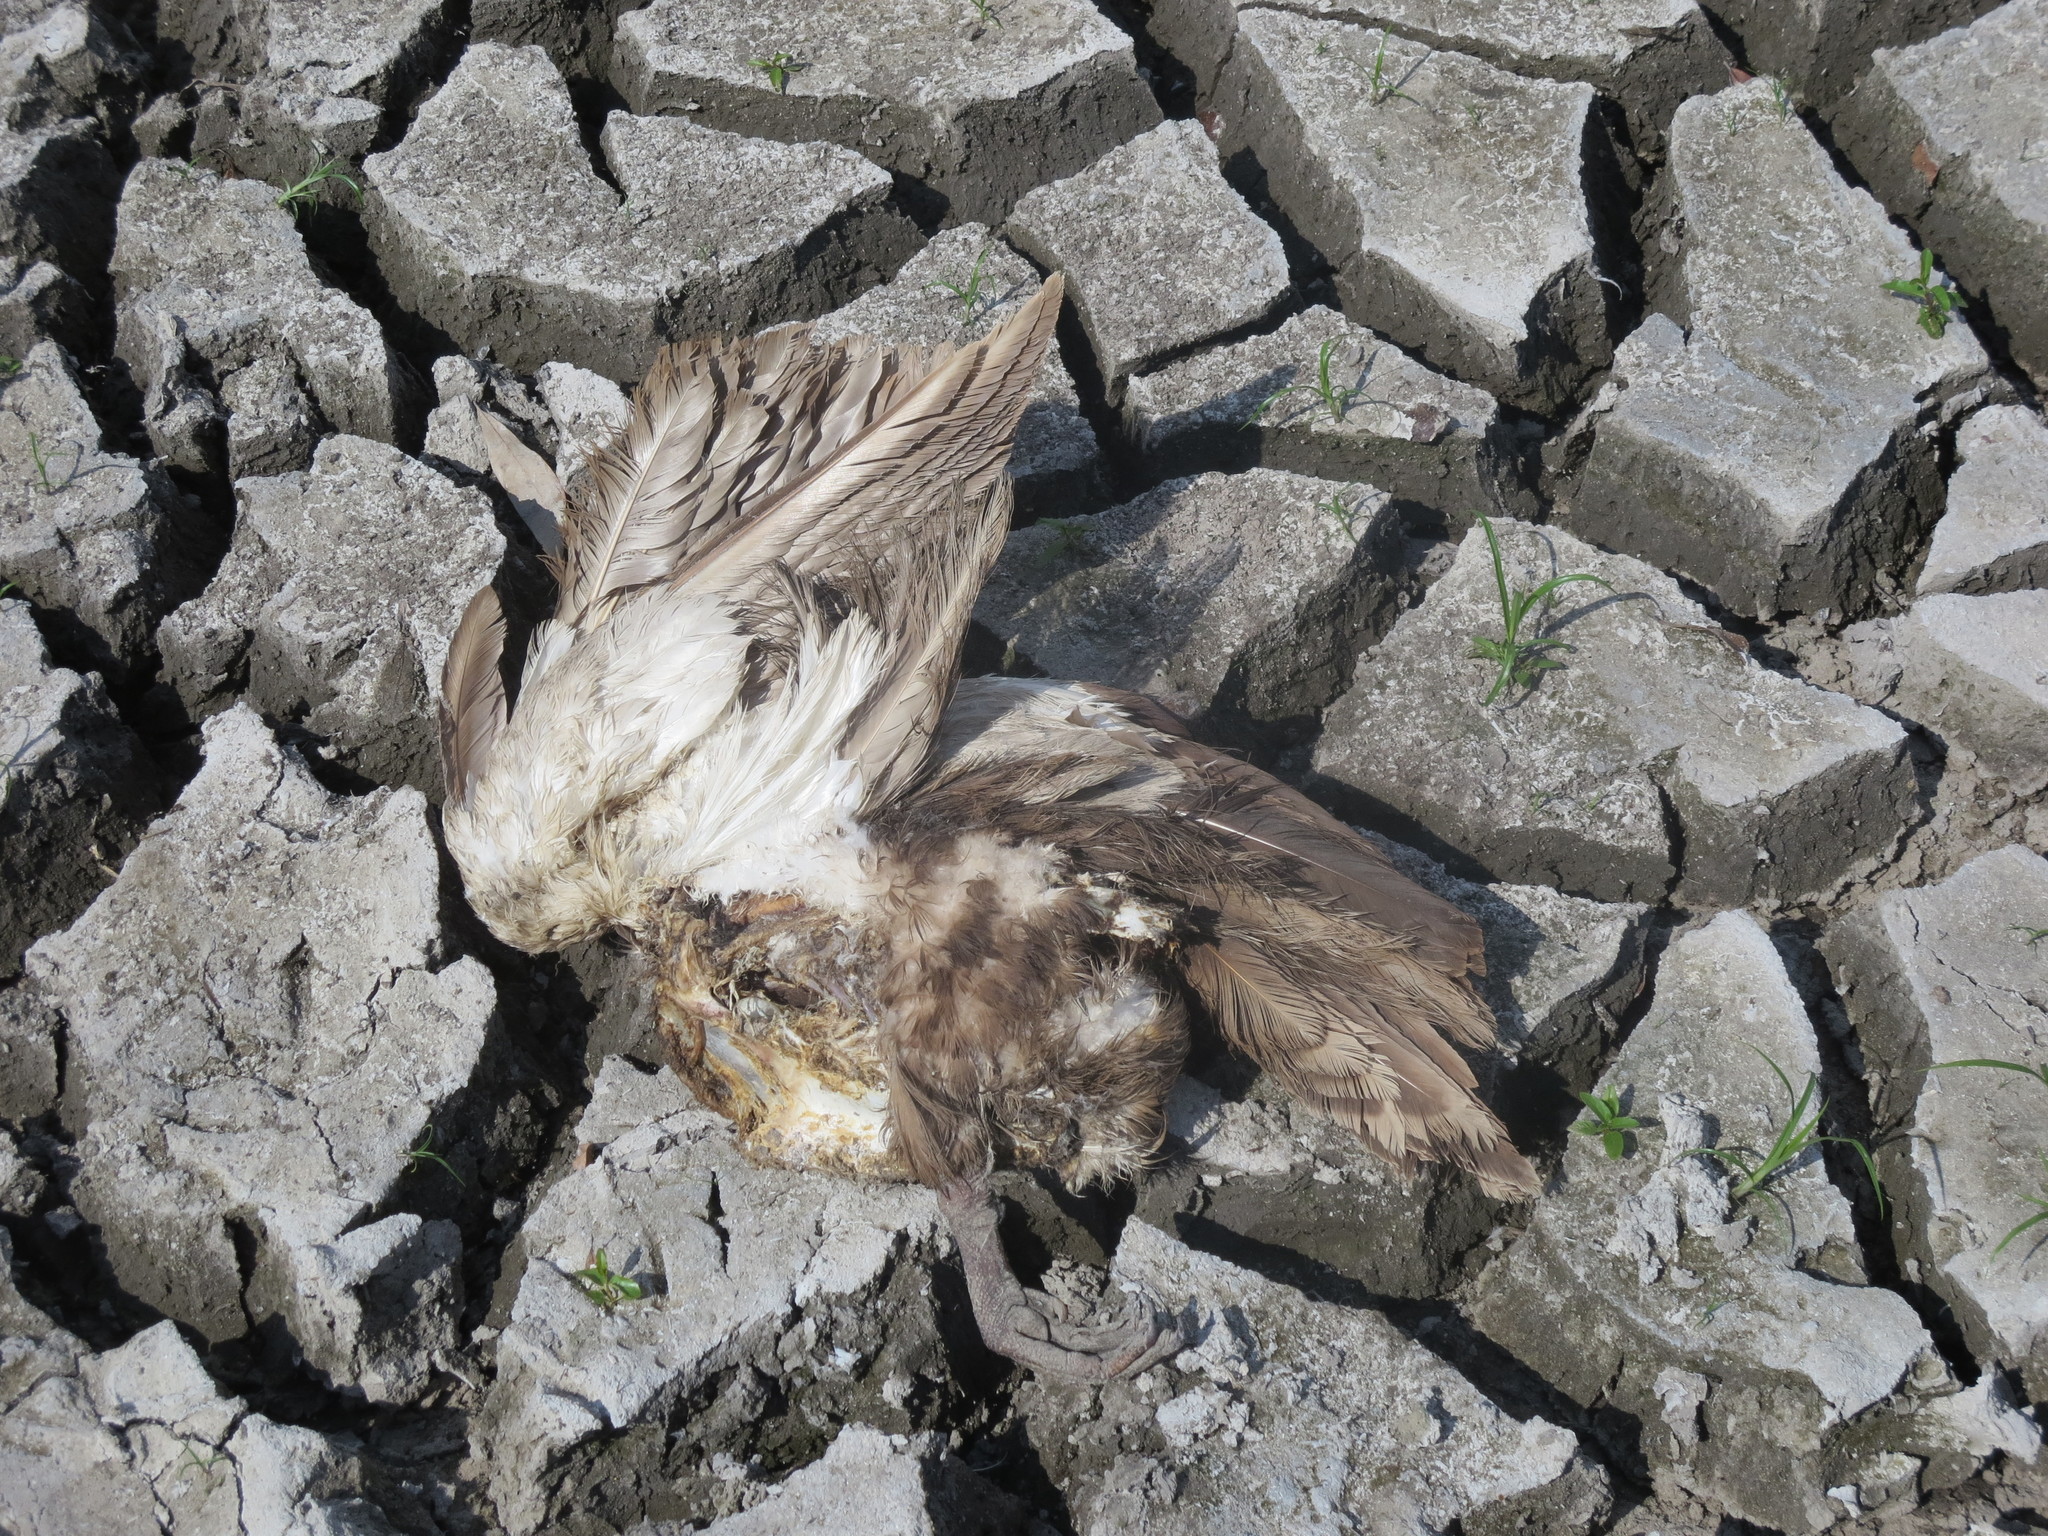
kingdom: Animalia
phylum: Chordata
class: Aves
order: Anseriformes
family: Anatidae
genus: Cairina
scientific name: Cairina moschata
